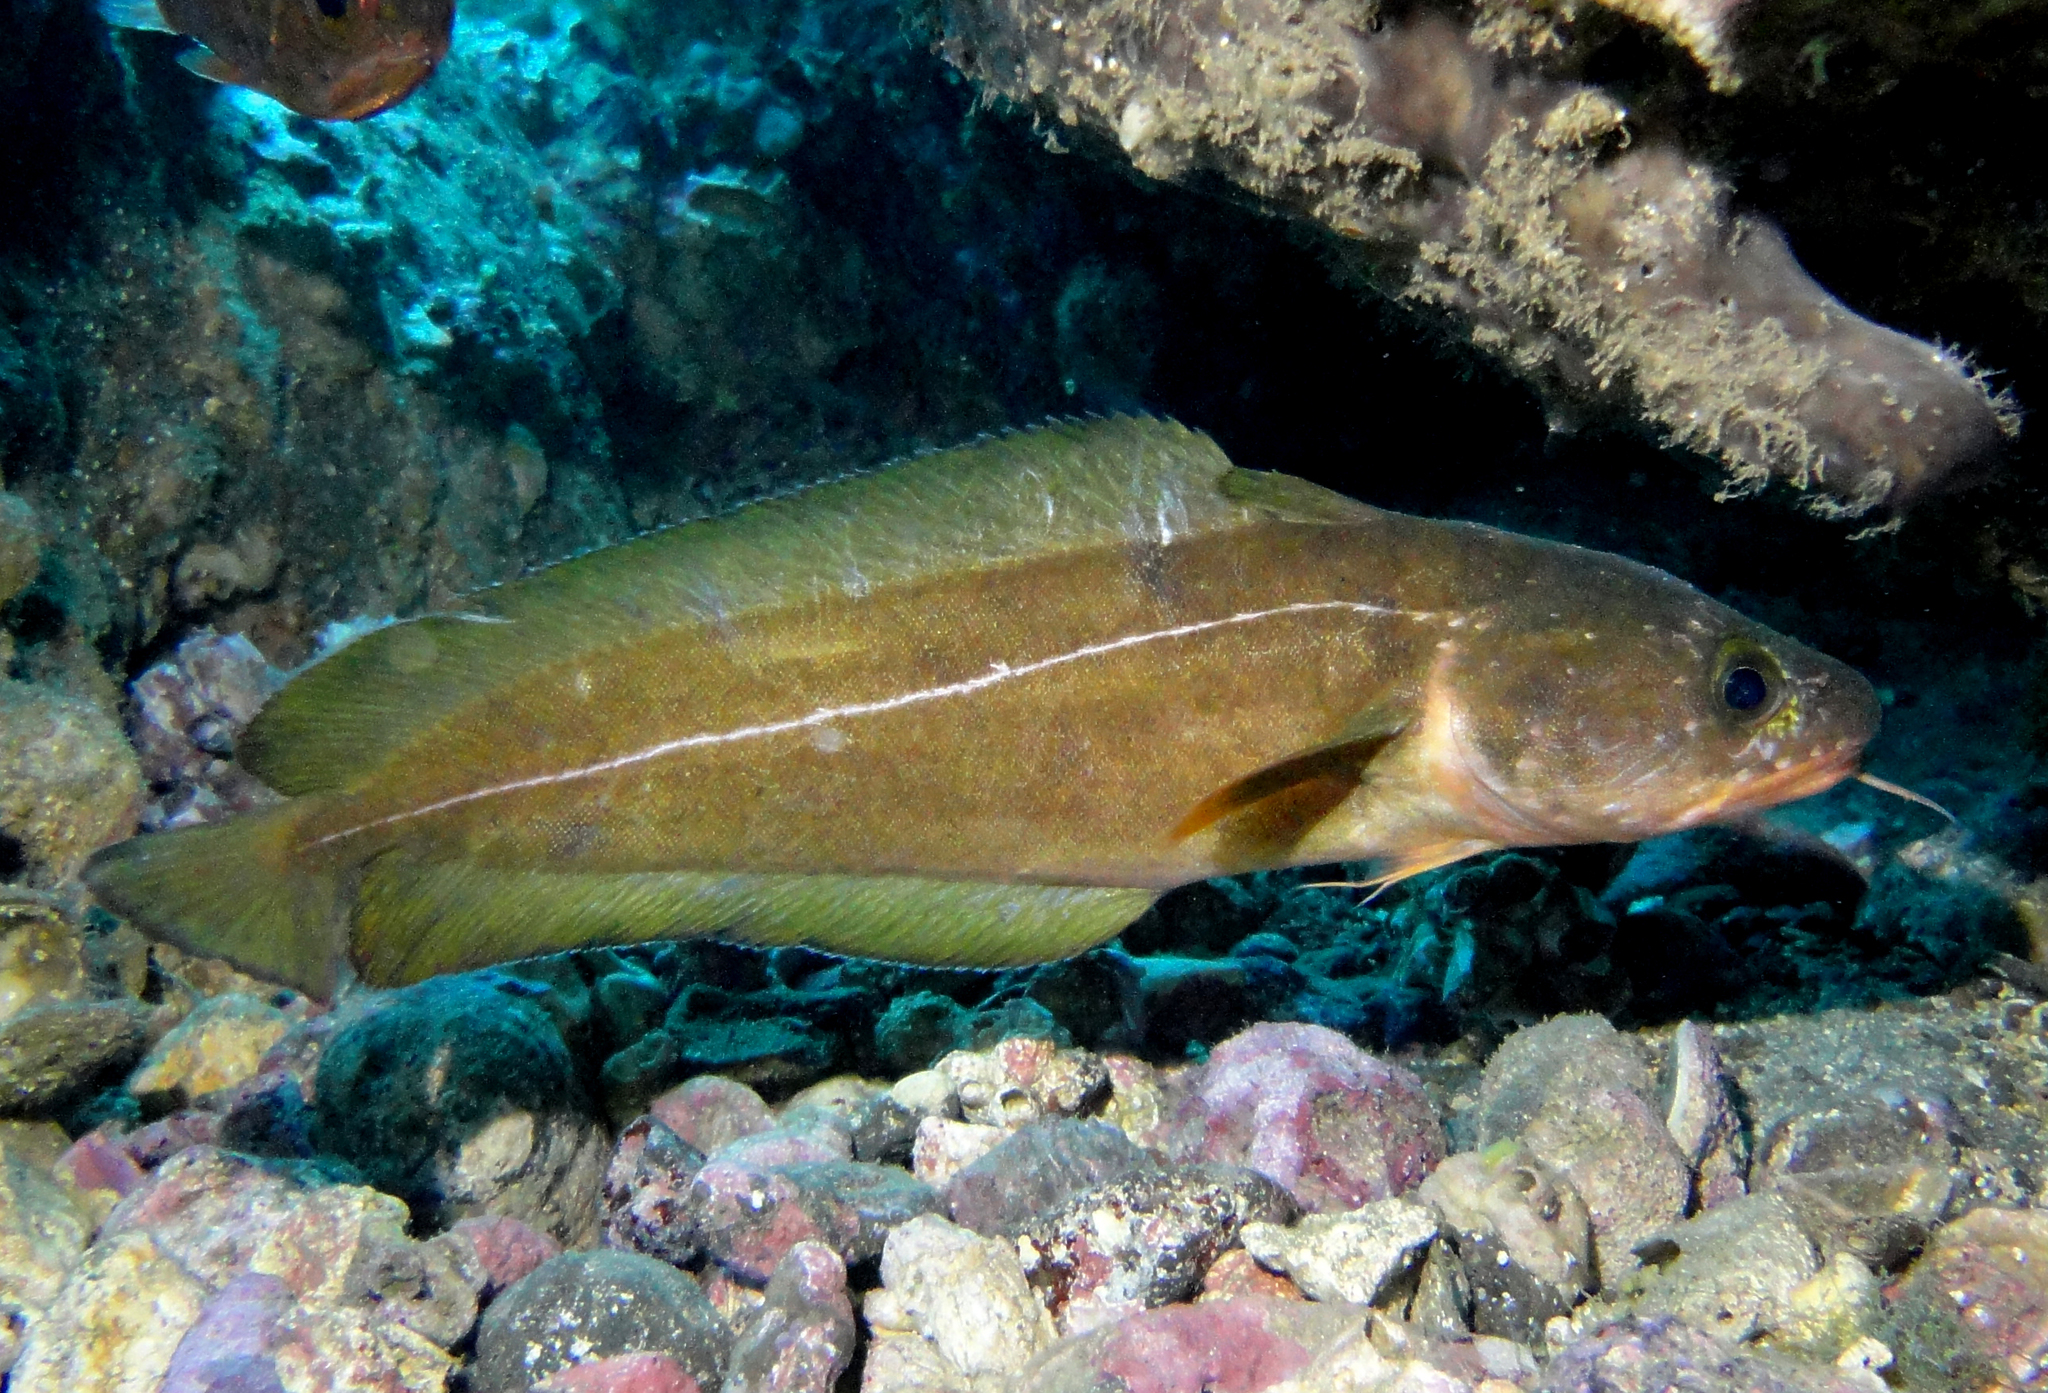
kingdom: Animalia
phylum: Chordata
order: Gadiformes
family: Moridae
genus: Lotella
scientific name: Lotella fernandeziana
